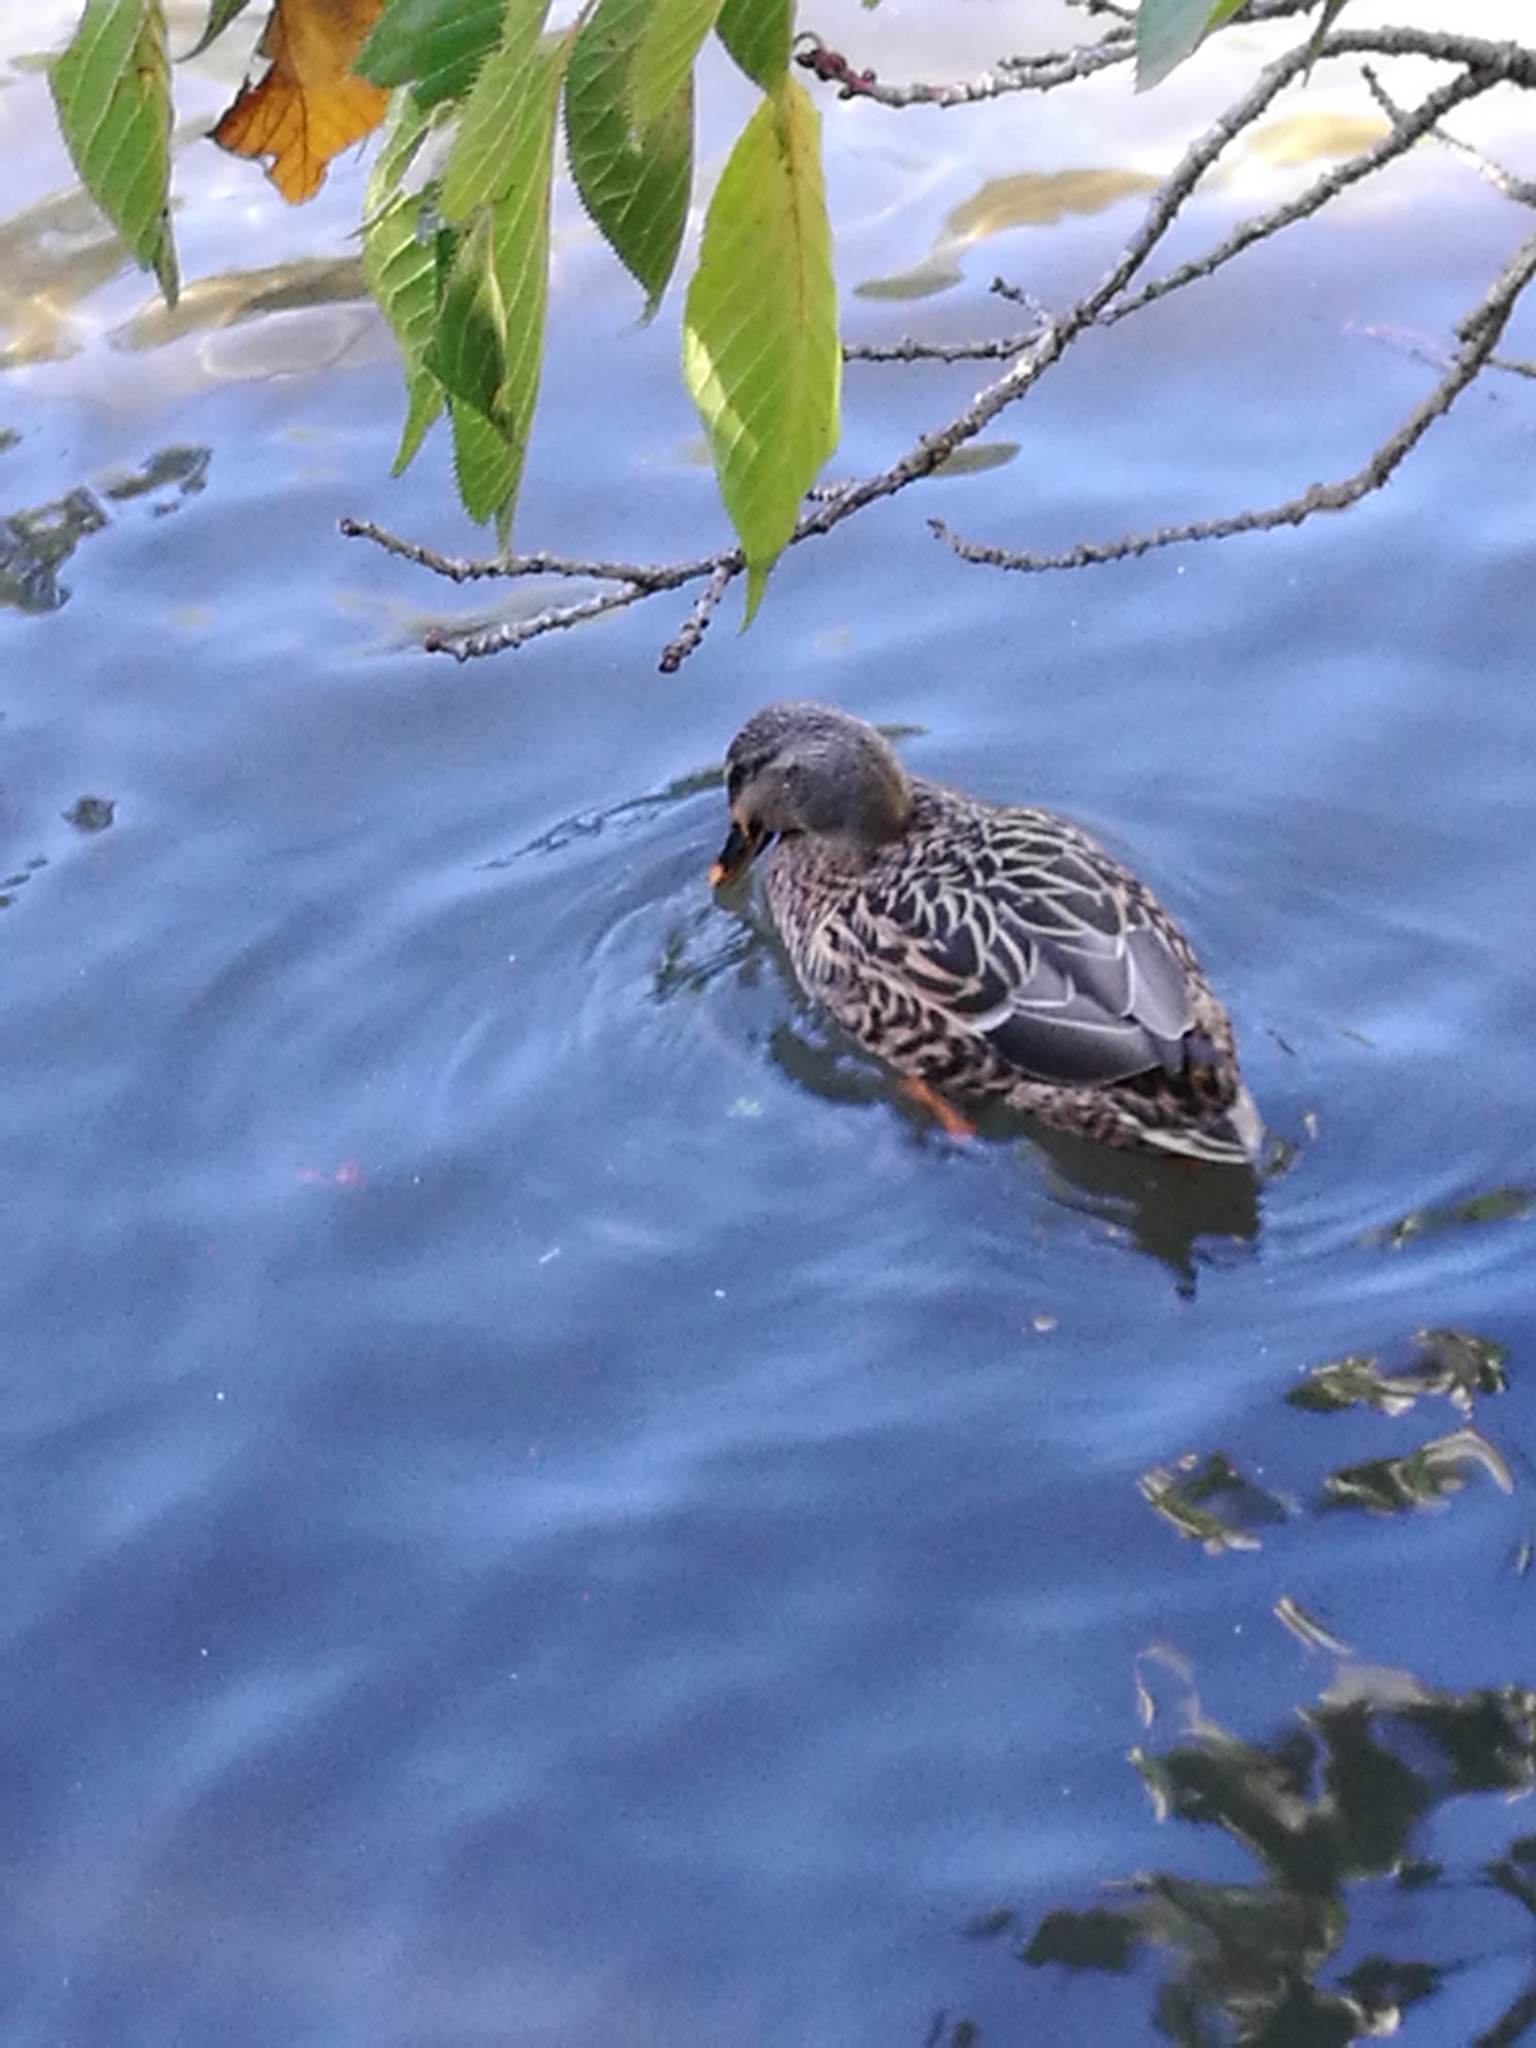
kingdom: Animalia
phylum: Chordata
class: Aves
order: Anseriformes
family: Anatidae
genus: Anas
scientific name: Anas
